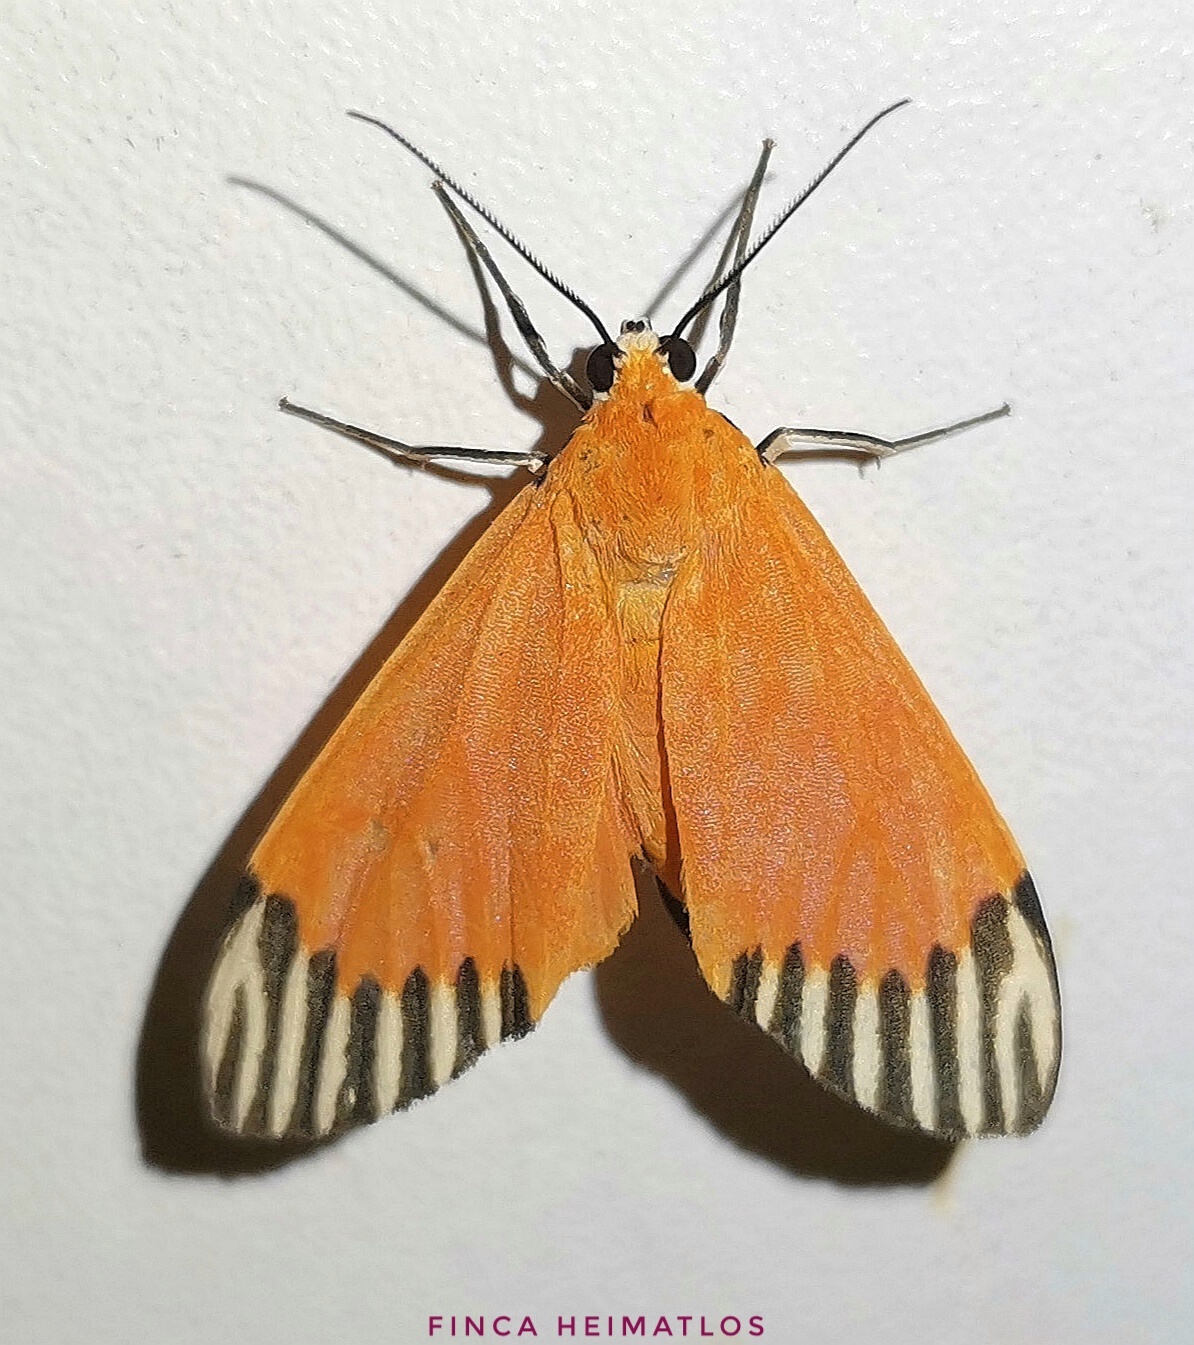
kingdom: Animalia
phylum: Arthropoda
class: Insecta
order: Lepidoptera
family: Erebidae
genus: Uranophora
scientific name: Uranophora walkeri
